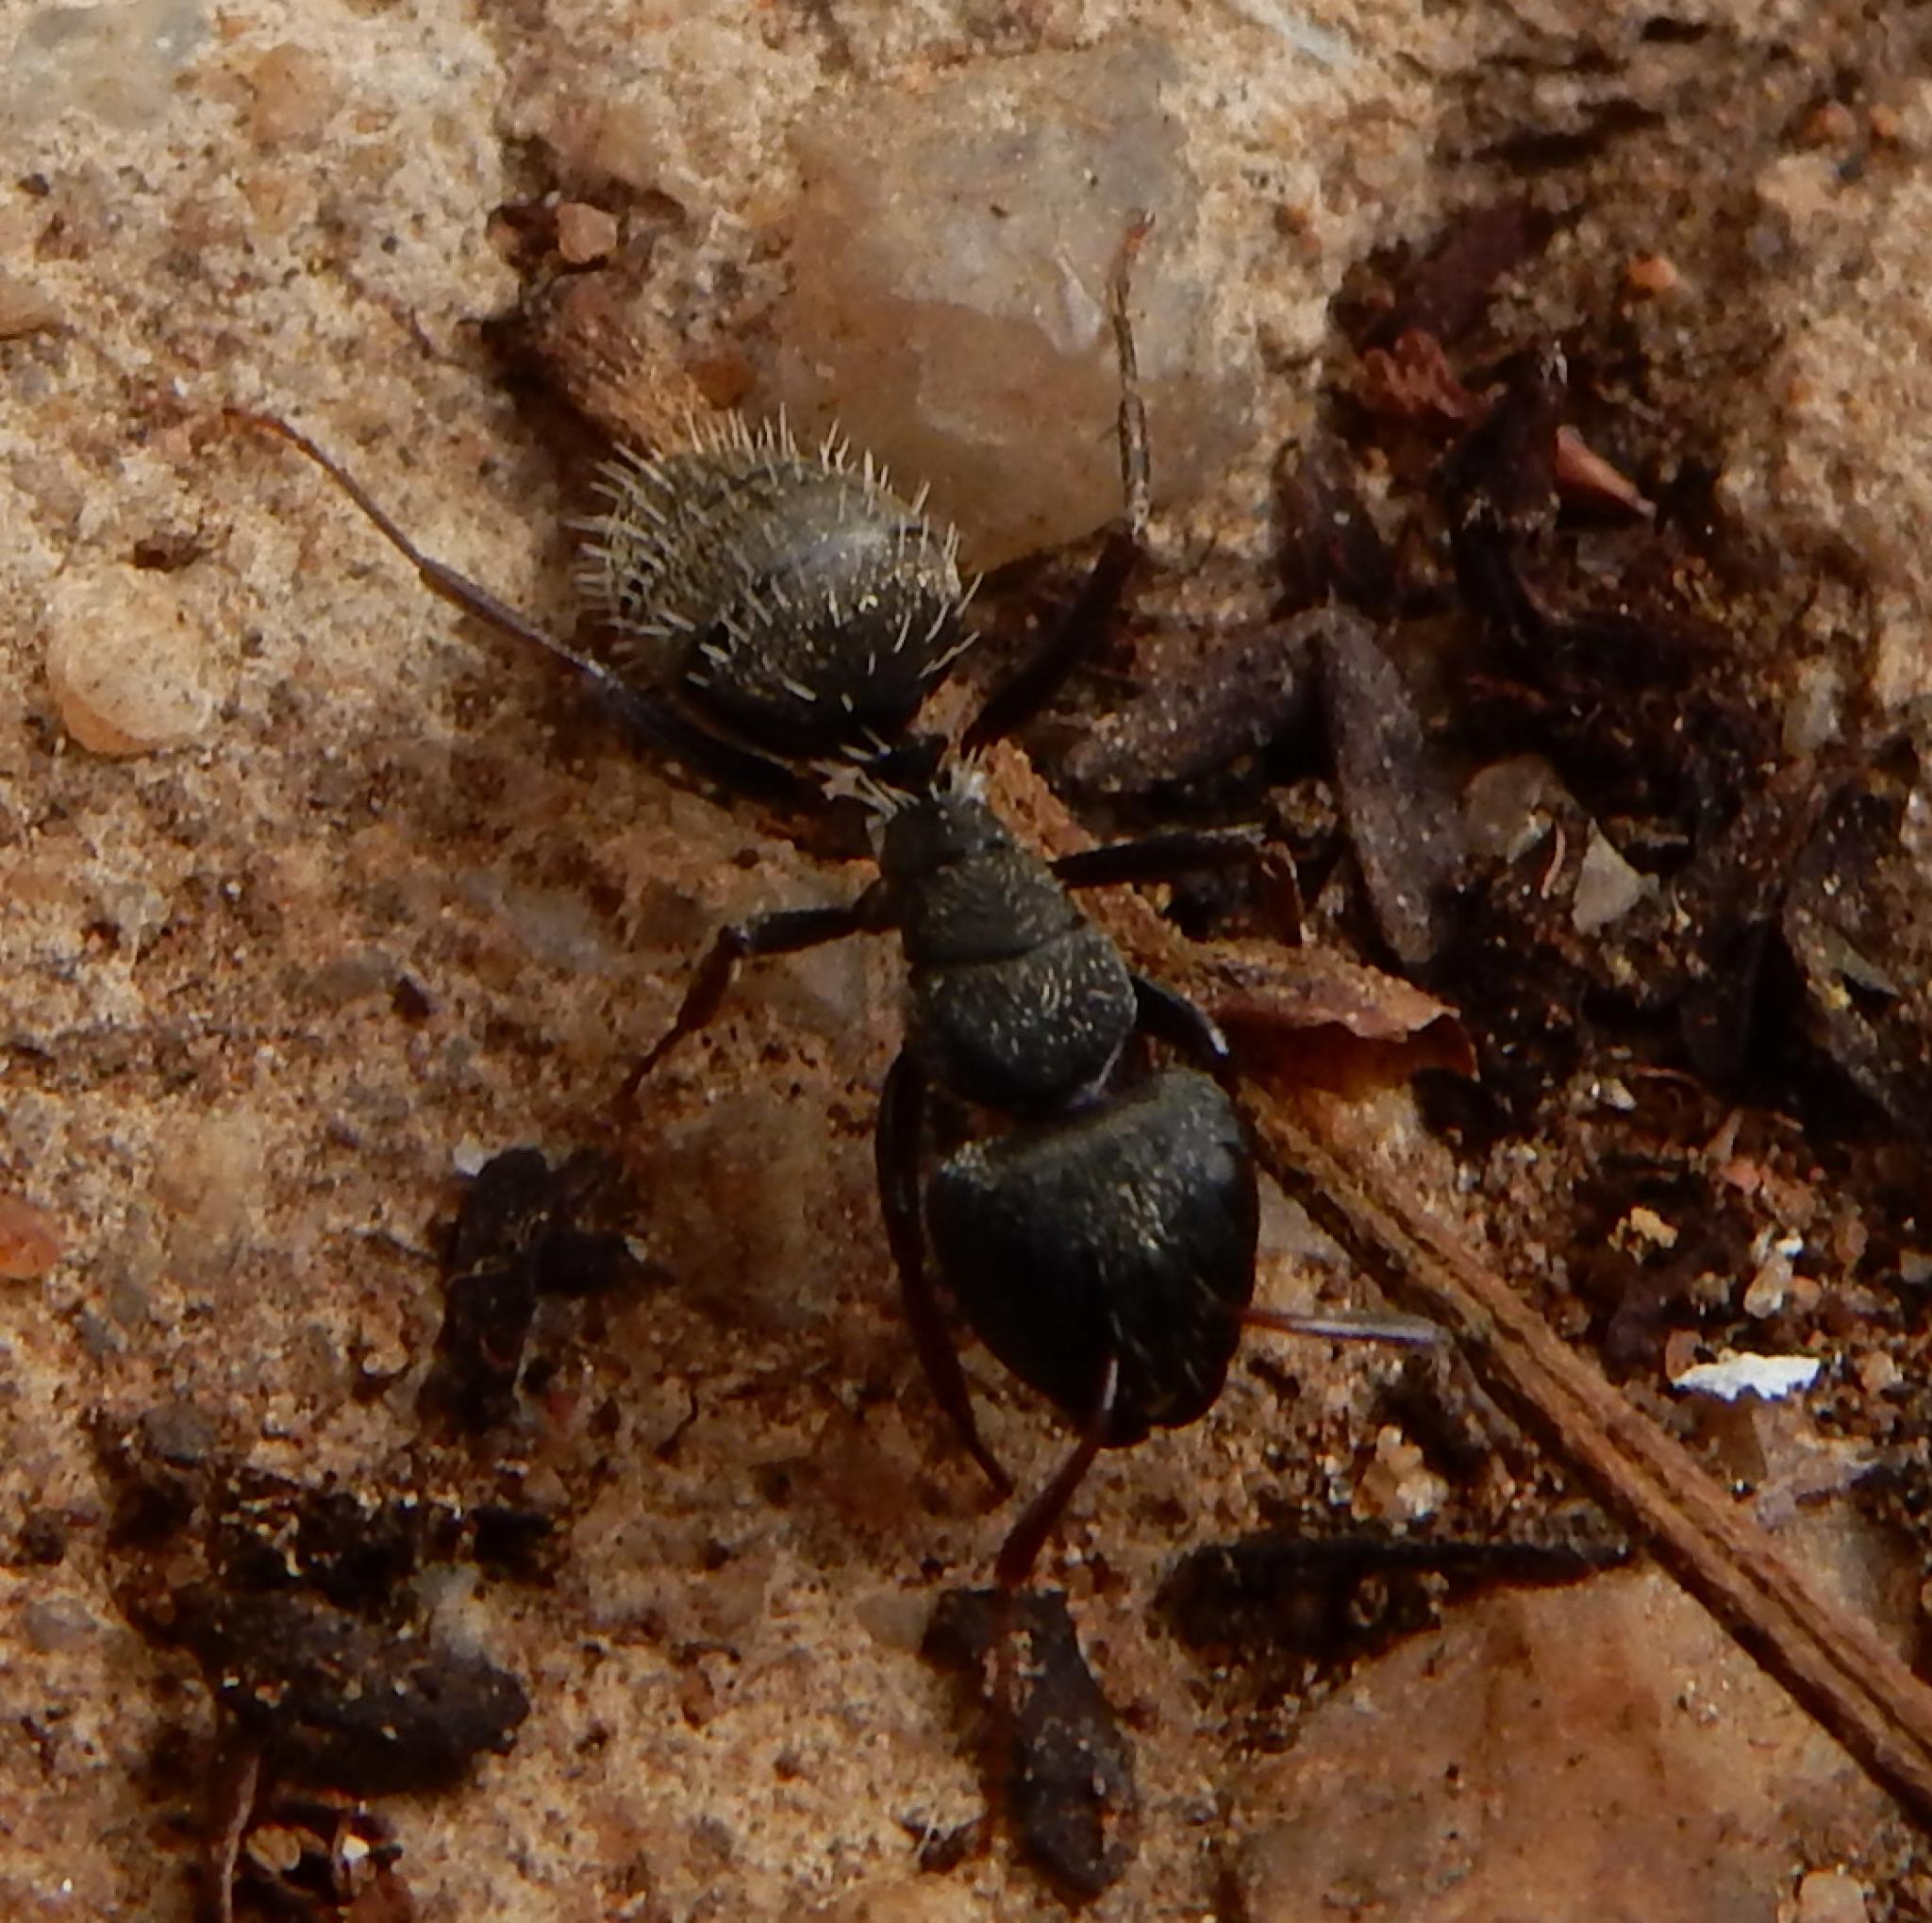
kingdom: Animalia
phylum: Arthropoda
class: Insecta
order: Hymenoptera
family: Formicidae
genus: Camponotus
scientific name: Camponotus amphidus
